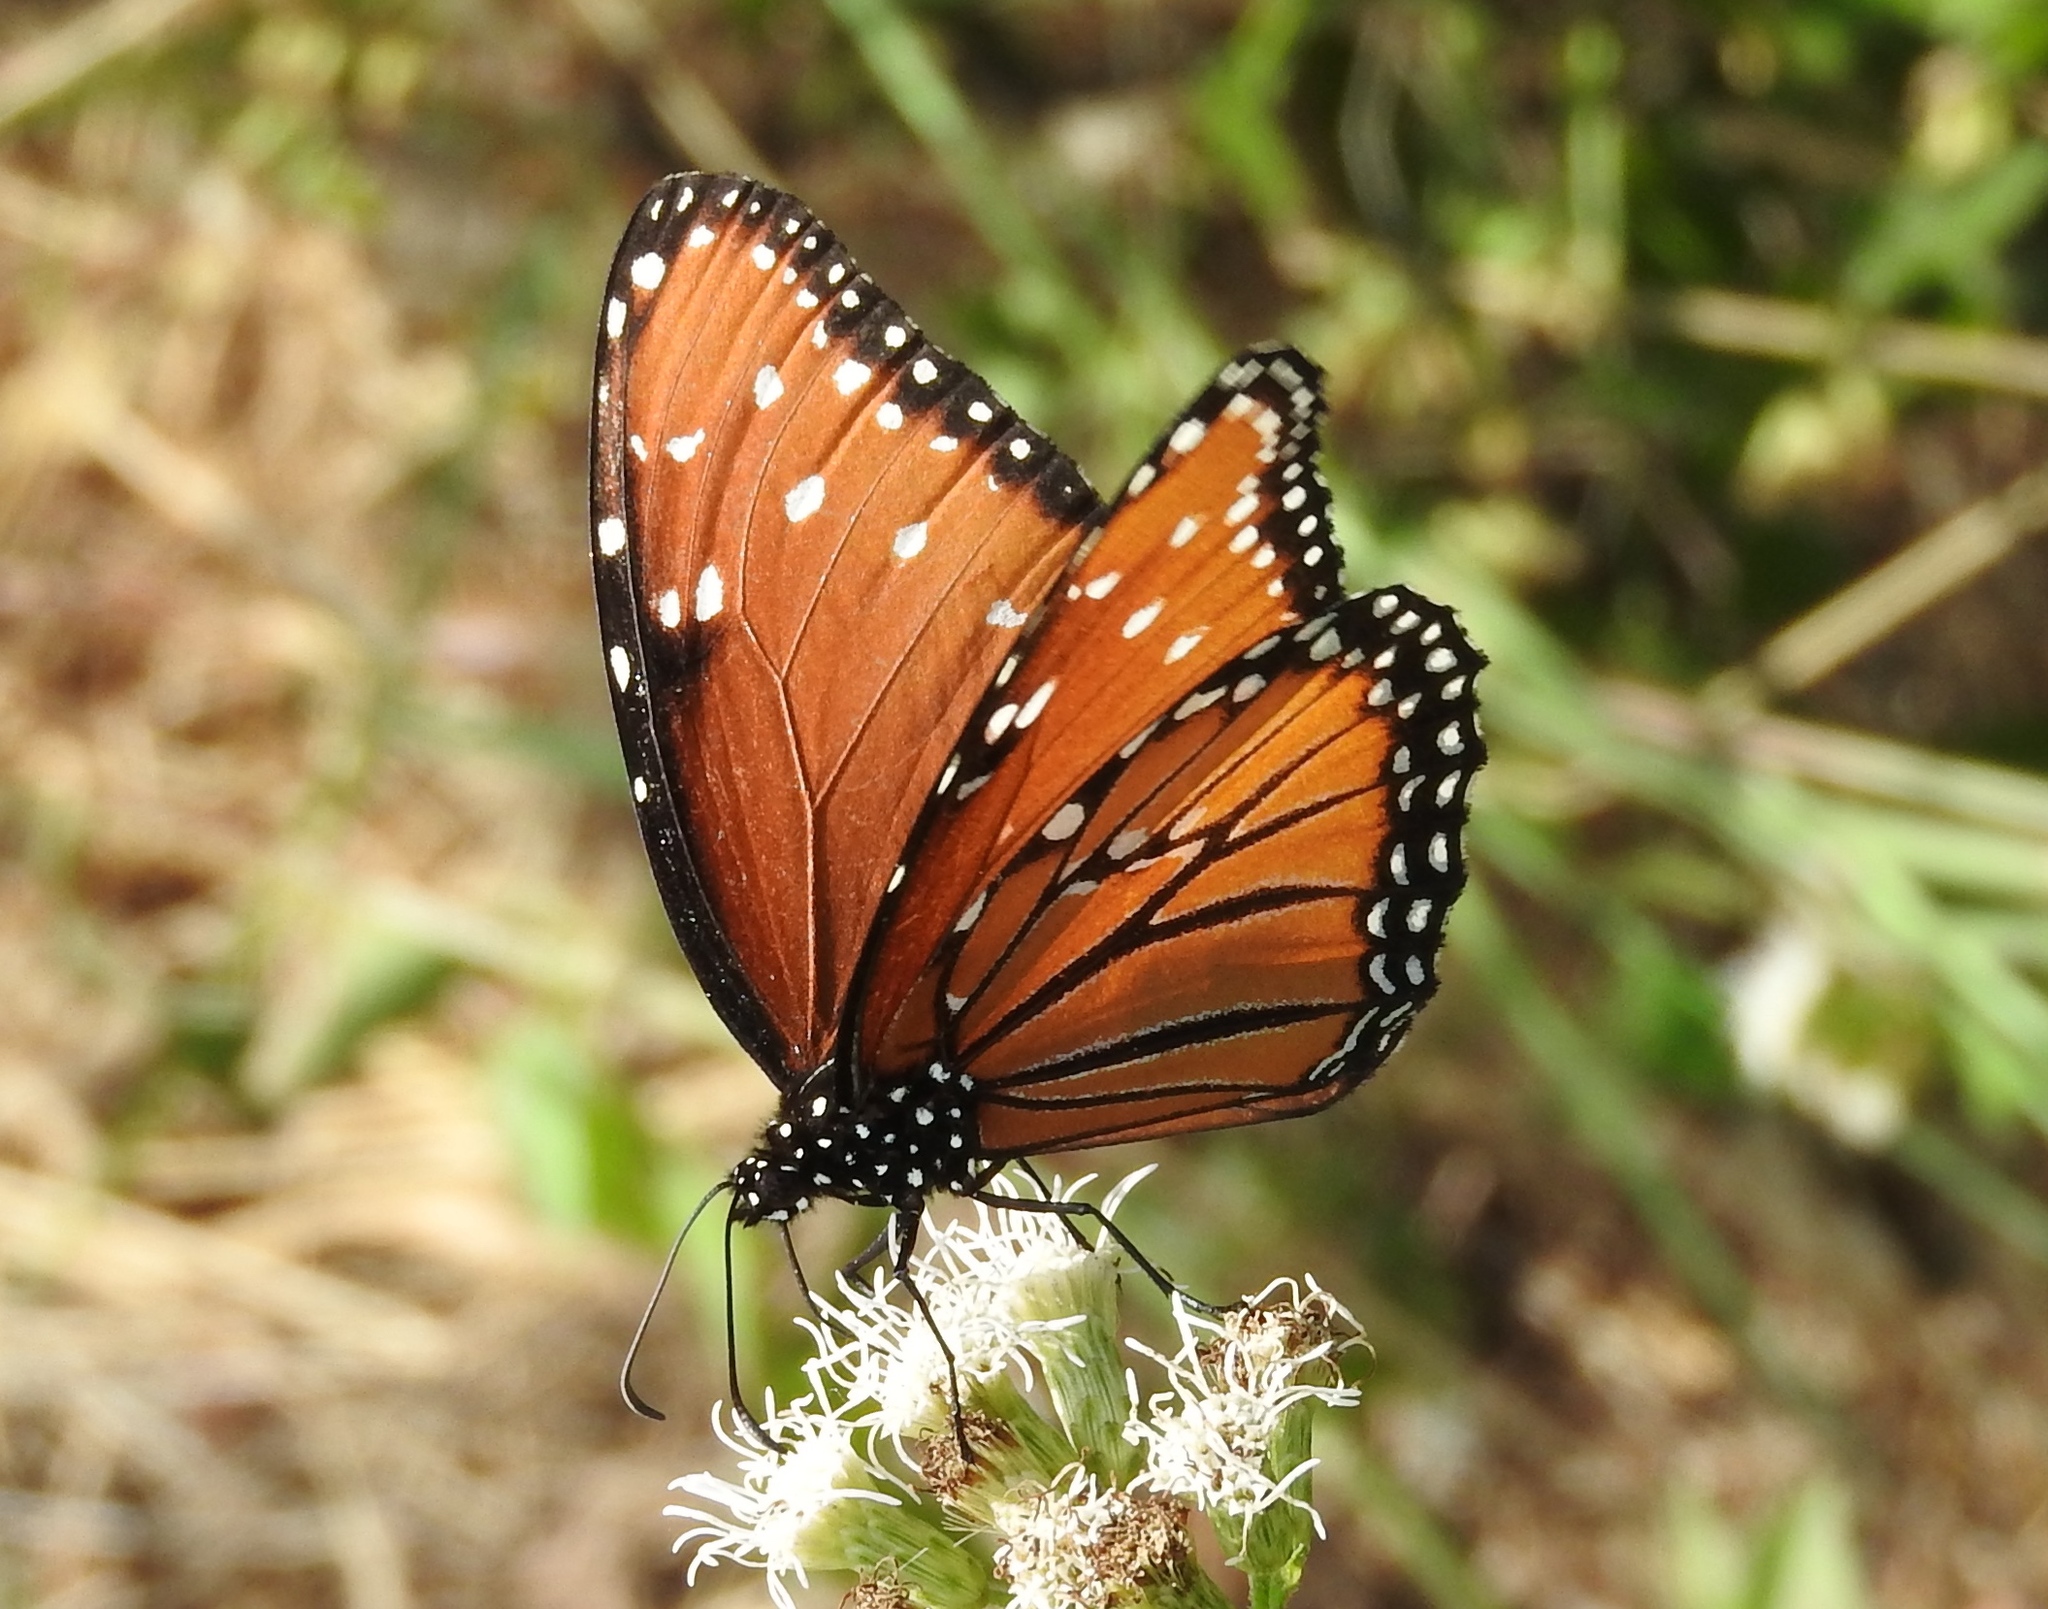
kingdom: Animalia
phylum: Arthropoda
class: Insecta
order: Lepidoptera
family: Nymphalidae
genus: Danaus
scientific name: Danaus gilippus
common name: Queen
